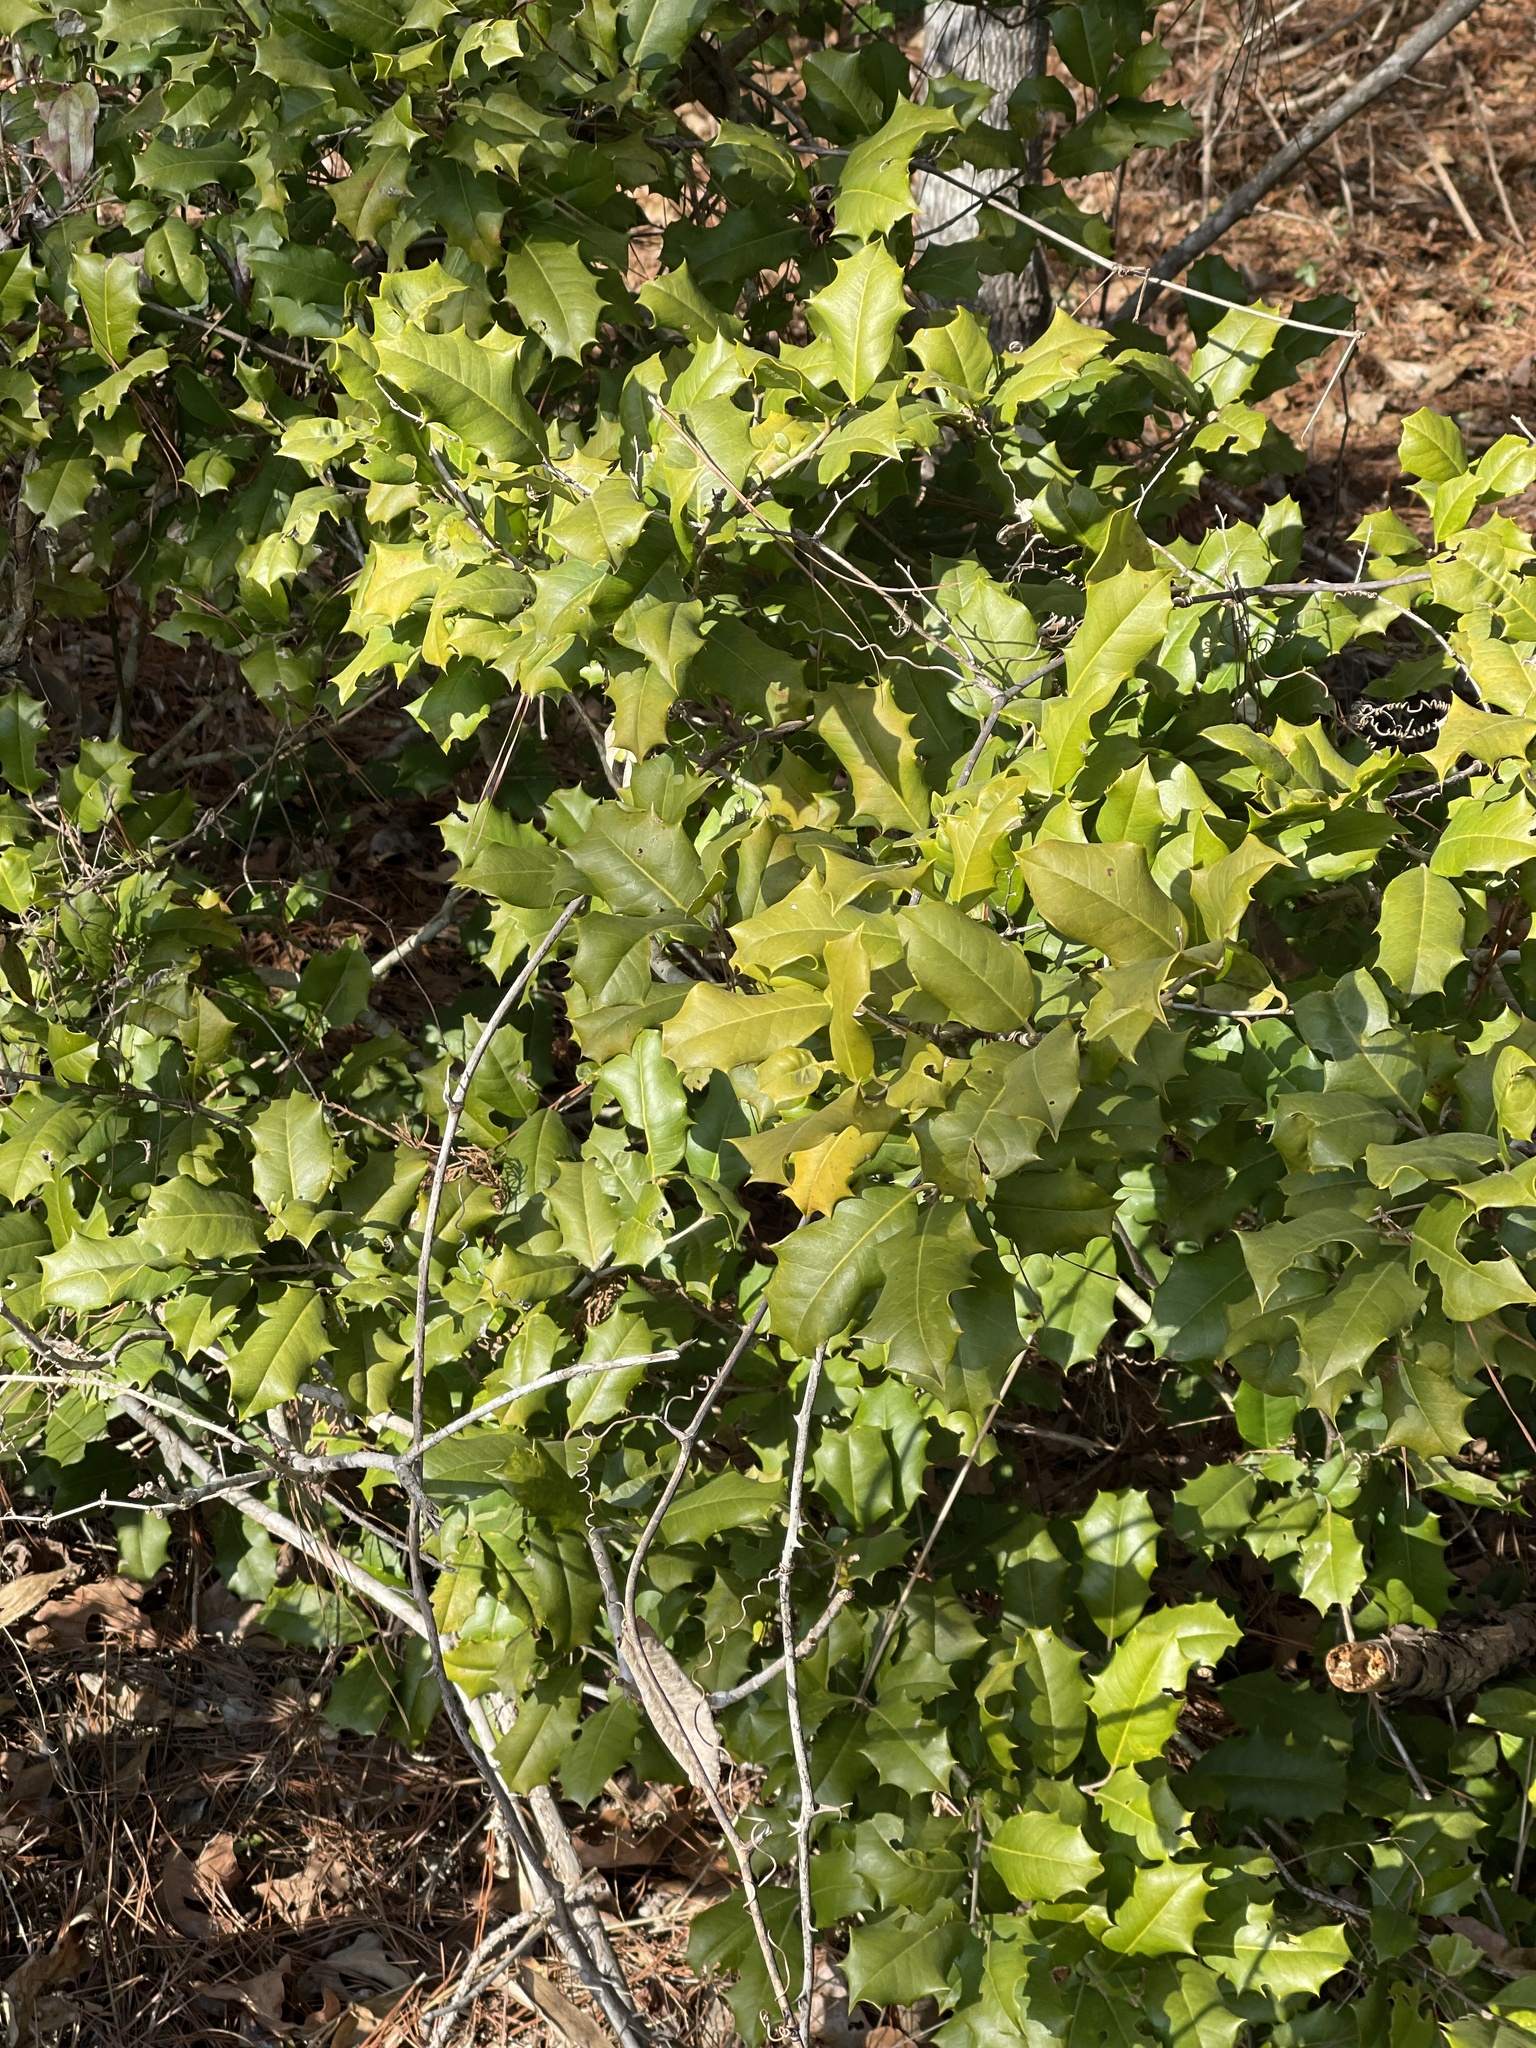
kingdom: Plantae
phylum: Tracheophyta
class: Magnoliopsida
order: Aquifoliales
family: Aquifoliaceae
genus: Ilex
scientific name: Ilex opaca
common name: American holly
